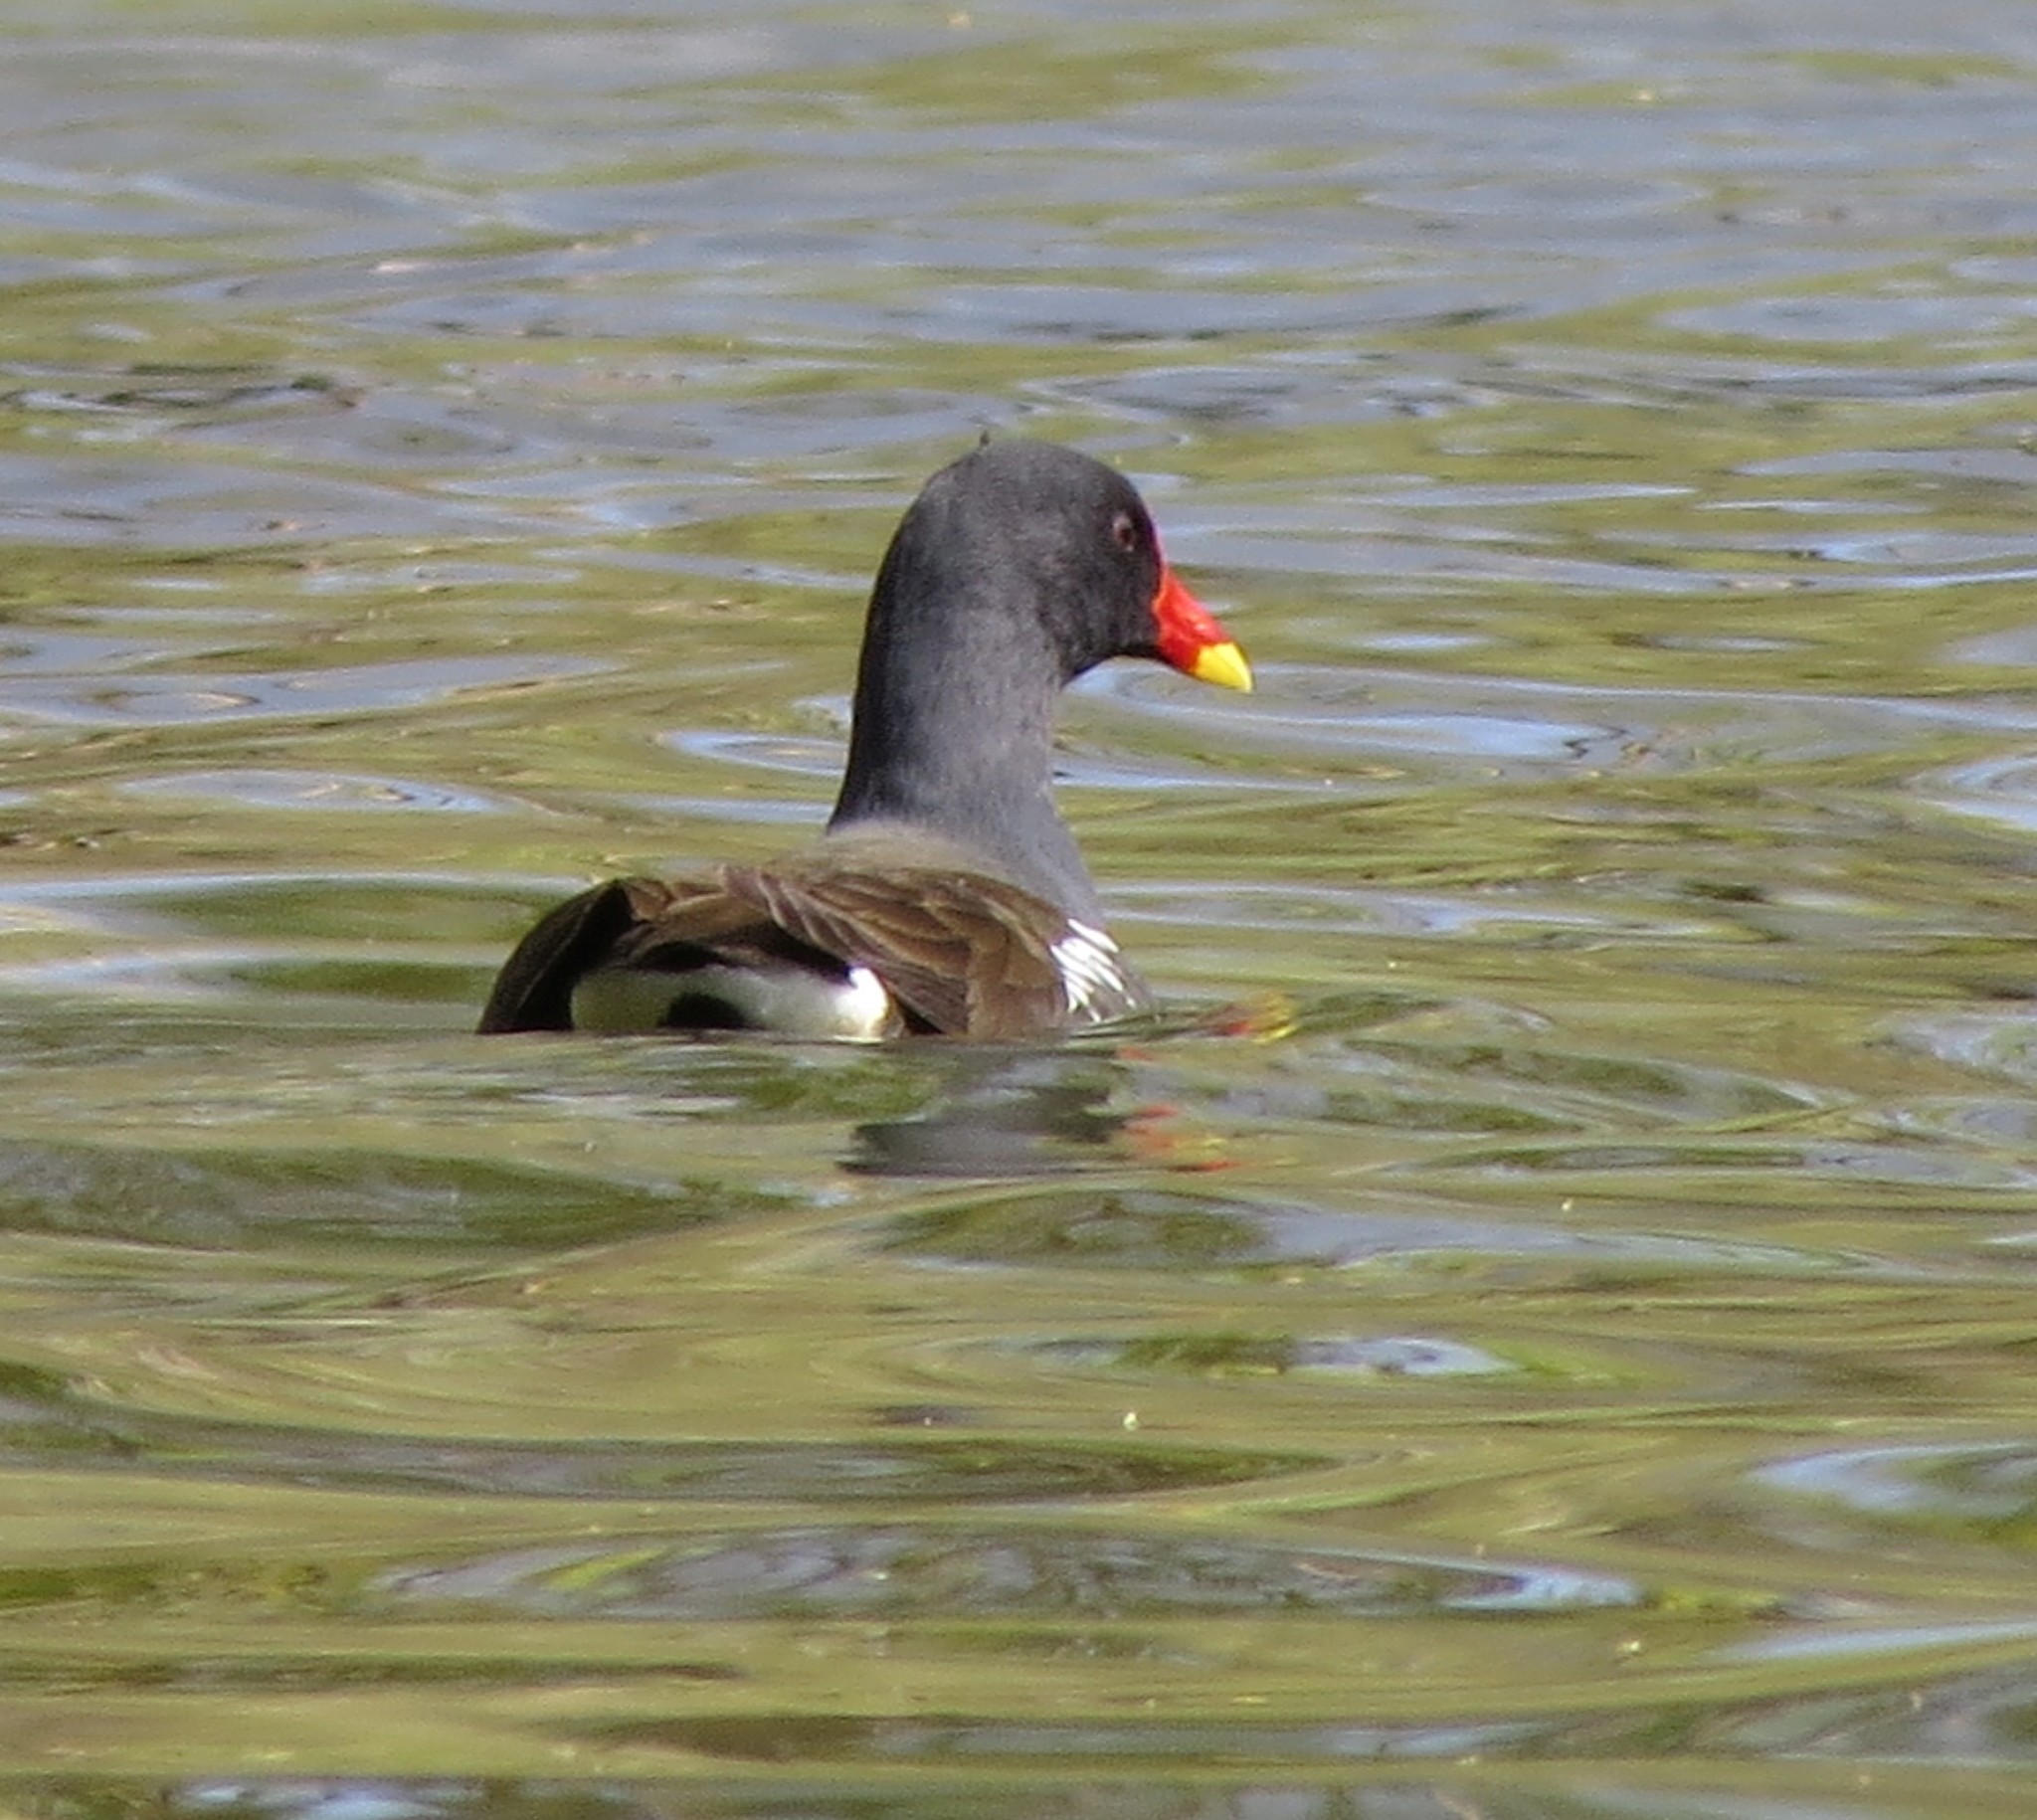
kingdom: Animalia
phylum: Chordata
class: Aves
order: Gruiformes
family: Rallidae
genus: Gallinula
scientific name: Gallinula chloropus
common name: Common moorhen
